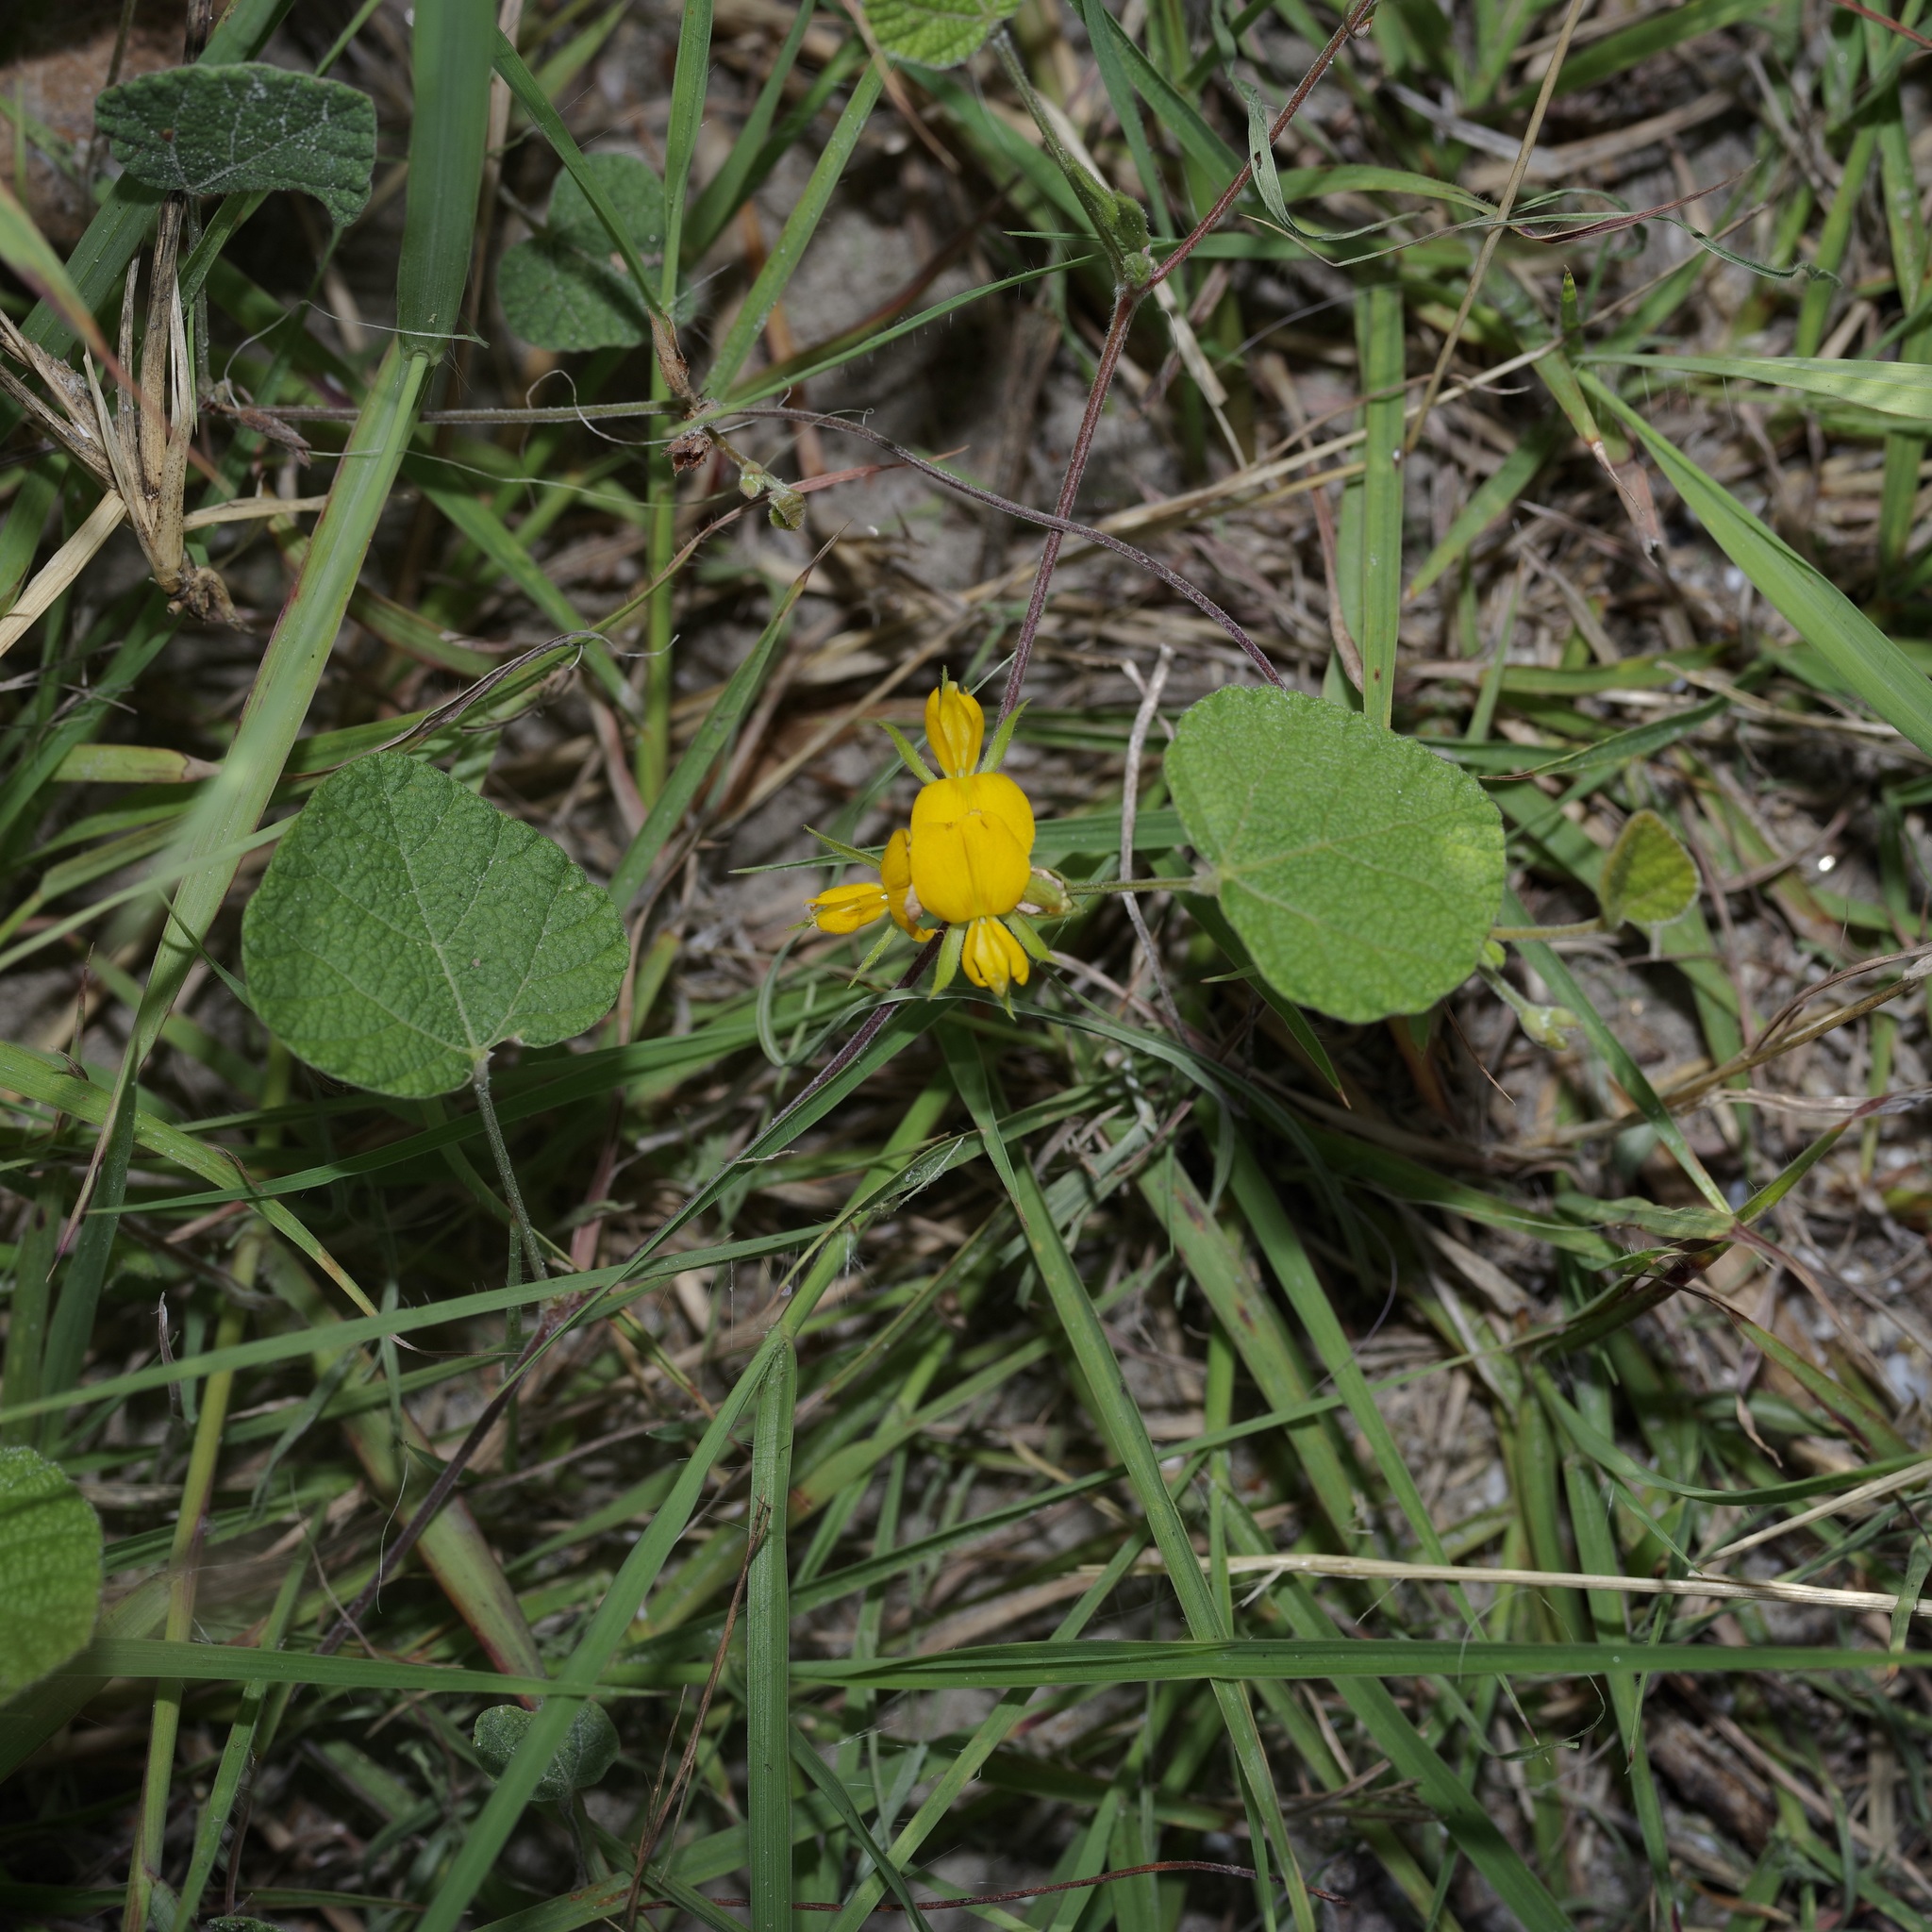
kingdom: Plantae
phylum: Tracheophyta
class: Magnoliopsida
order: Fabales
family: Fabaceae
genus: Rhynchosia
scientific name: Rhynchosia americana
